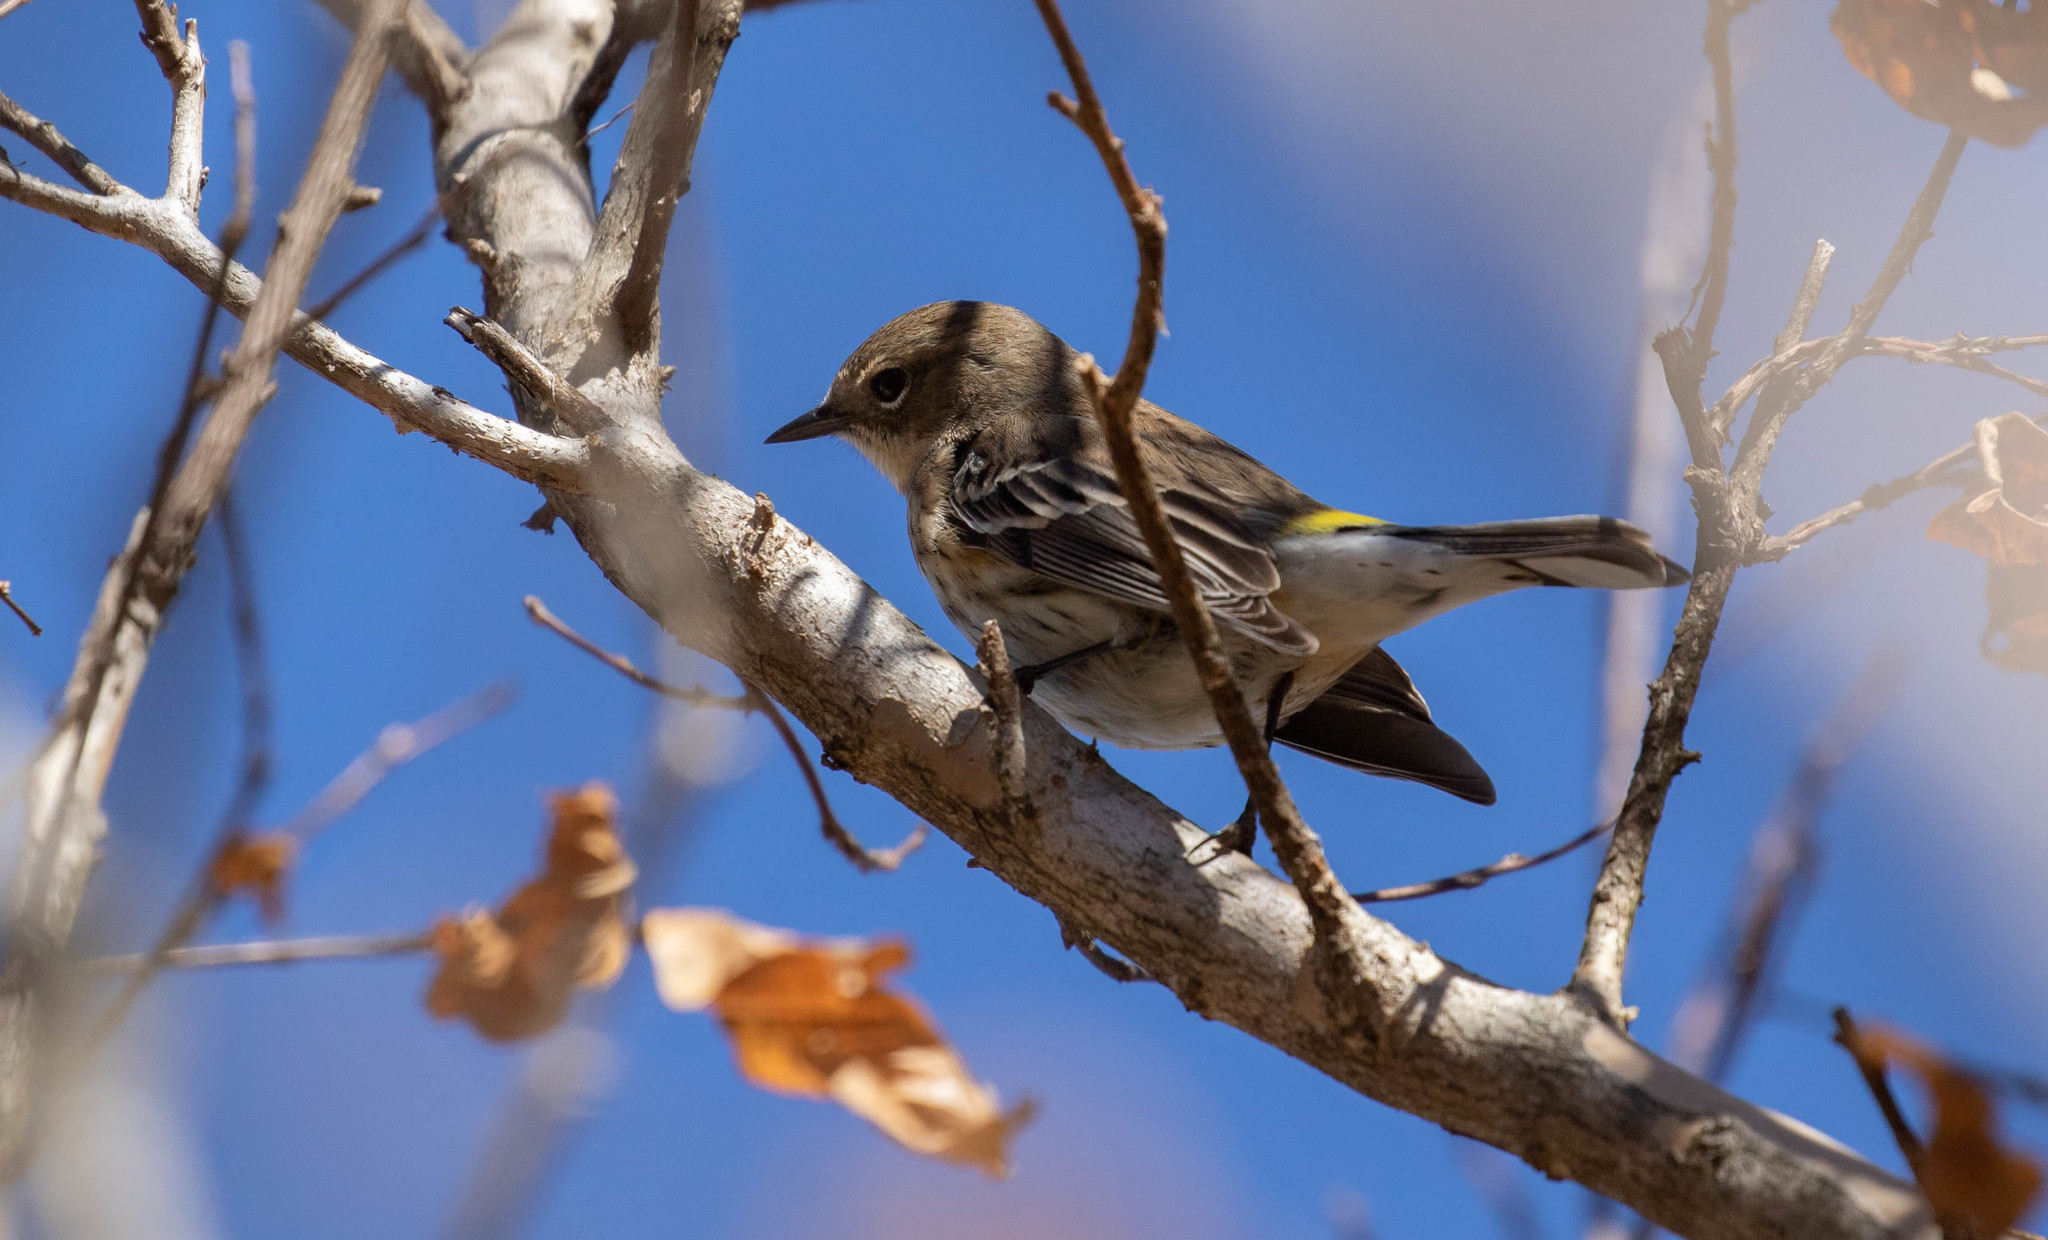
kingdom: Animalia
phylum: Chordata
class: Aves
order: Passeriformes
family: Parulidae
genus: Setophaga
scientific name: Setophaga coronata
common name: Myrtle warbler
